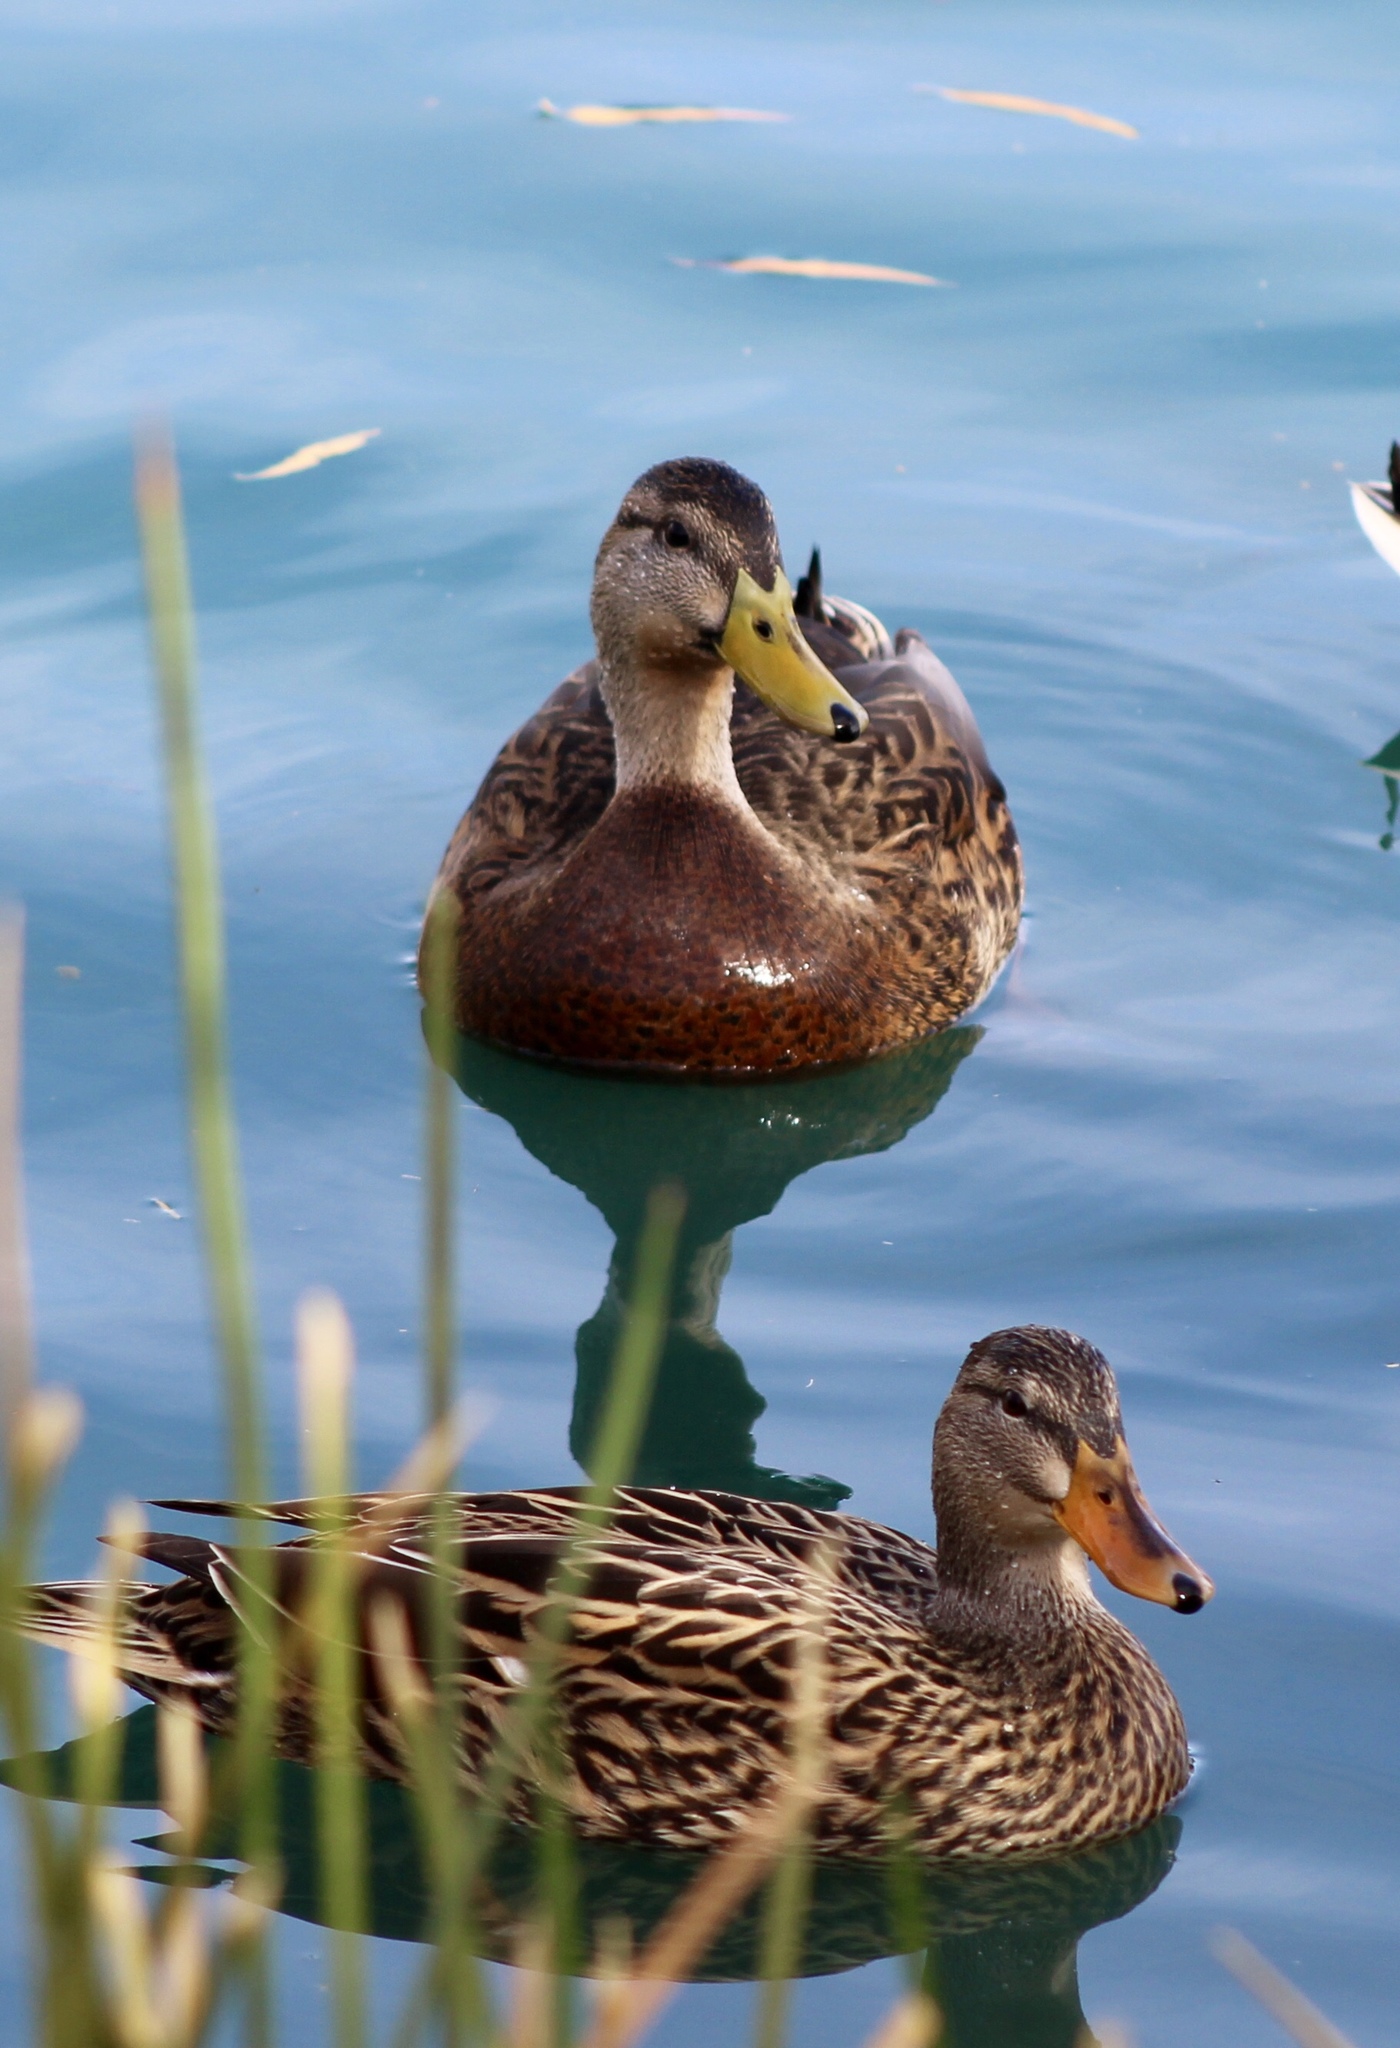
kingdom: Animalia
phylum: Chordata
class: Aves
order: Anseriformes
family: Anatidae
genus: Anas
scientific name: Anas
